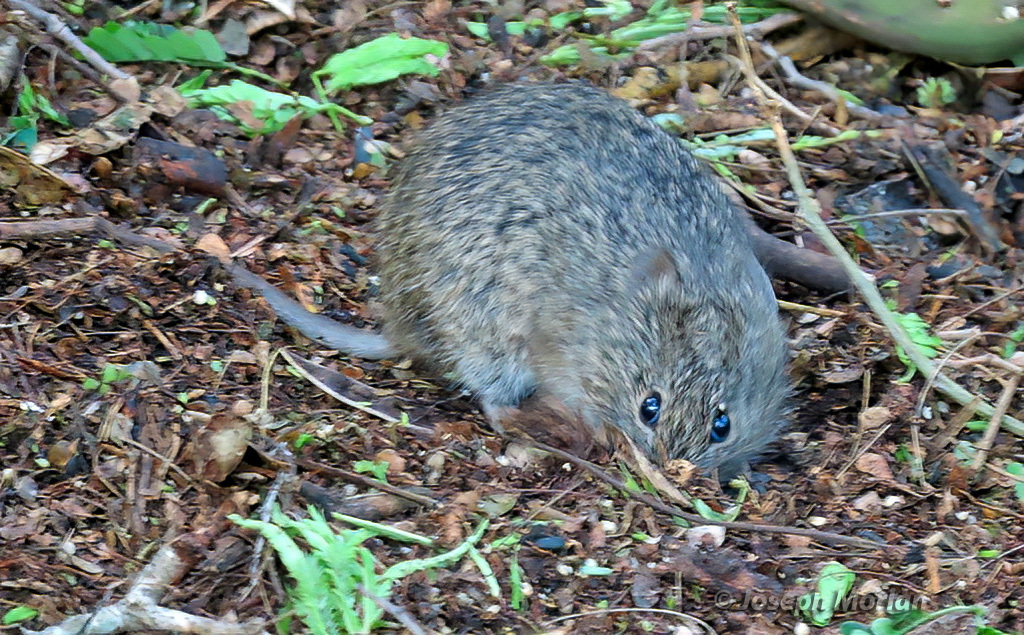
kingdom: Animalia
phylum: Chordata
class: Mammalia
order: Rodentia
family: Cricetidae
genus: Sigmodon
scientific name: Sigmodon hispidus
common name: Hispid cotton rat
